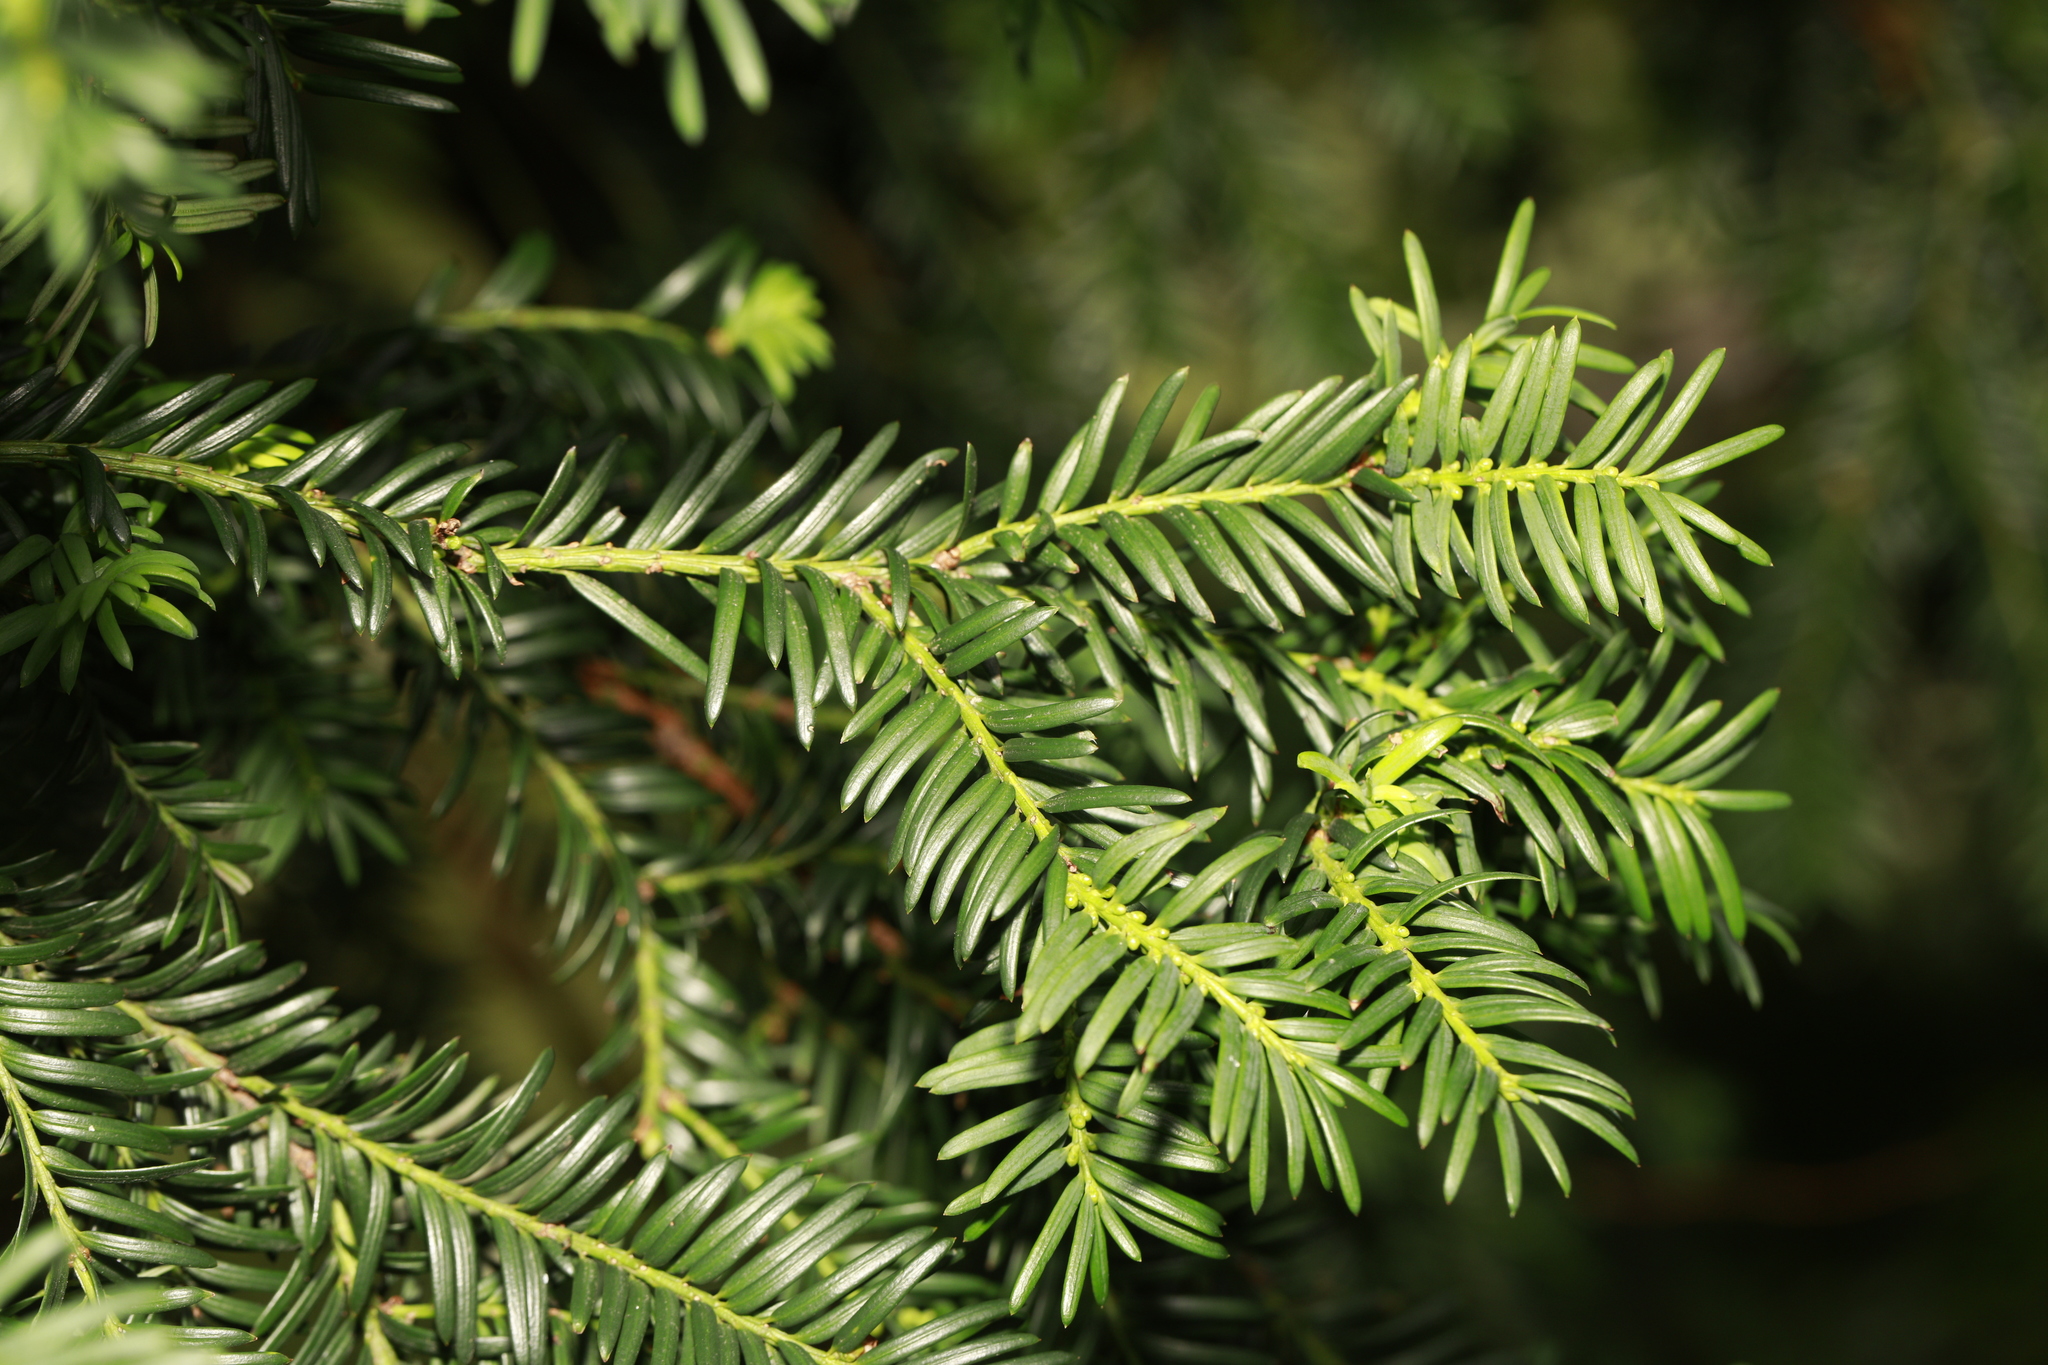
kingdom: Plantae
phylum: Tracheophyta
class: Pinopsida
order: Pinales
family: Taxaceae
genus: Taxus
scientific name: Taxus baccata
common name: Yew
